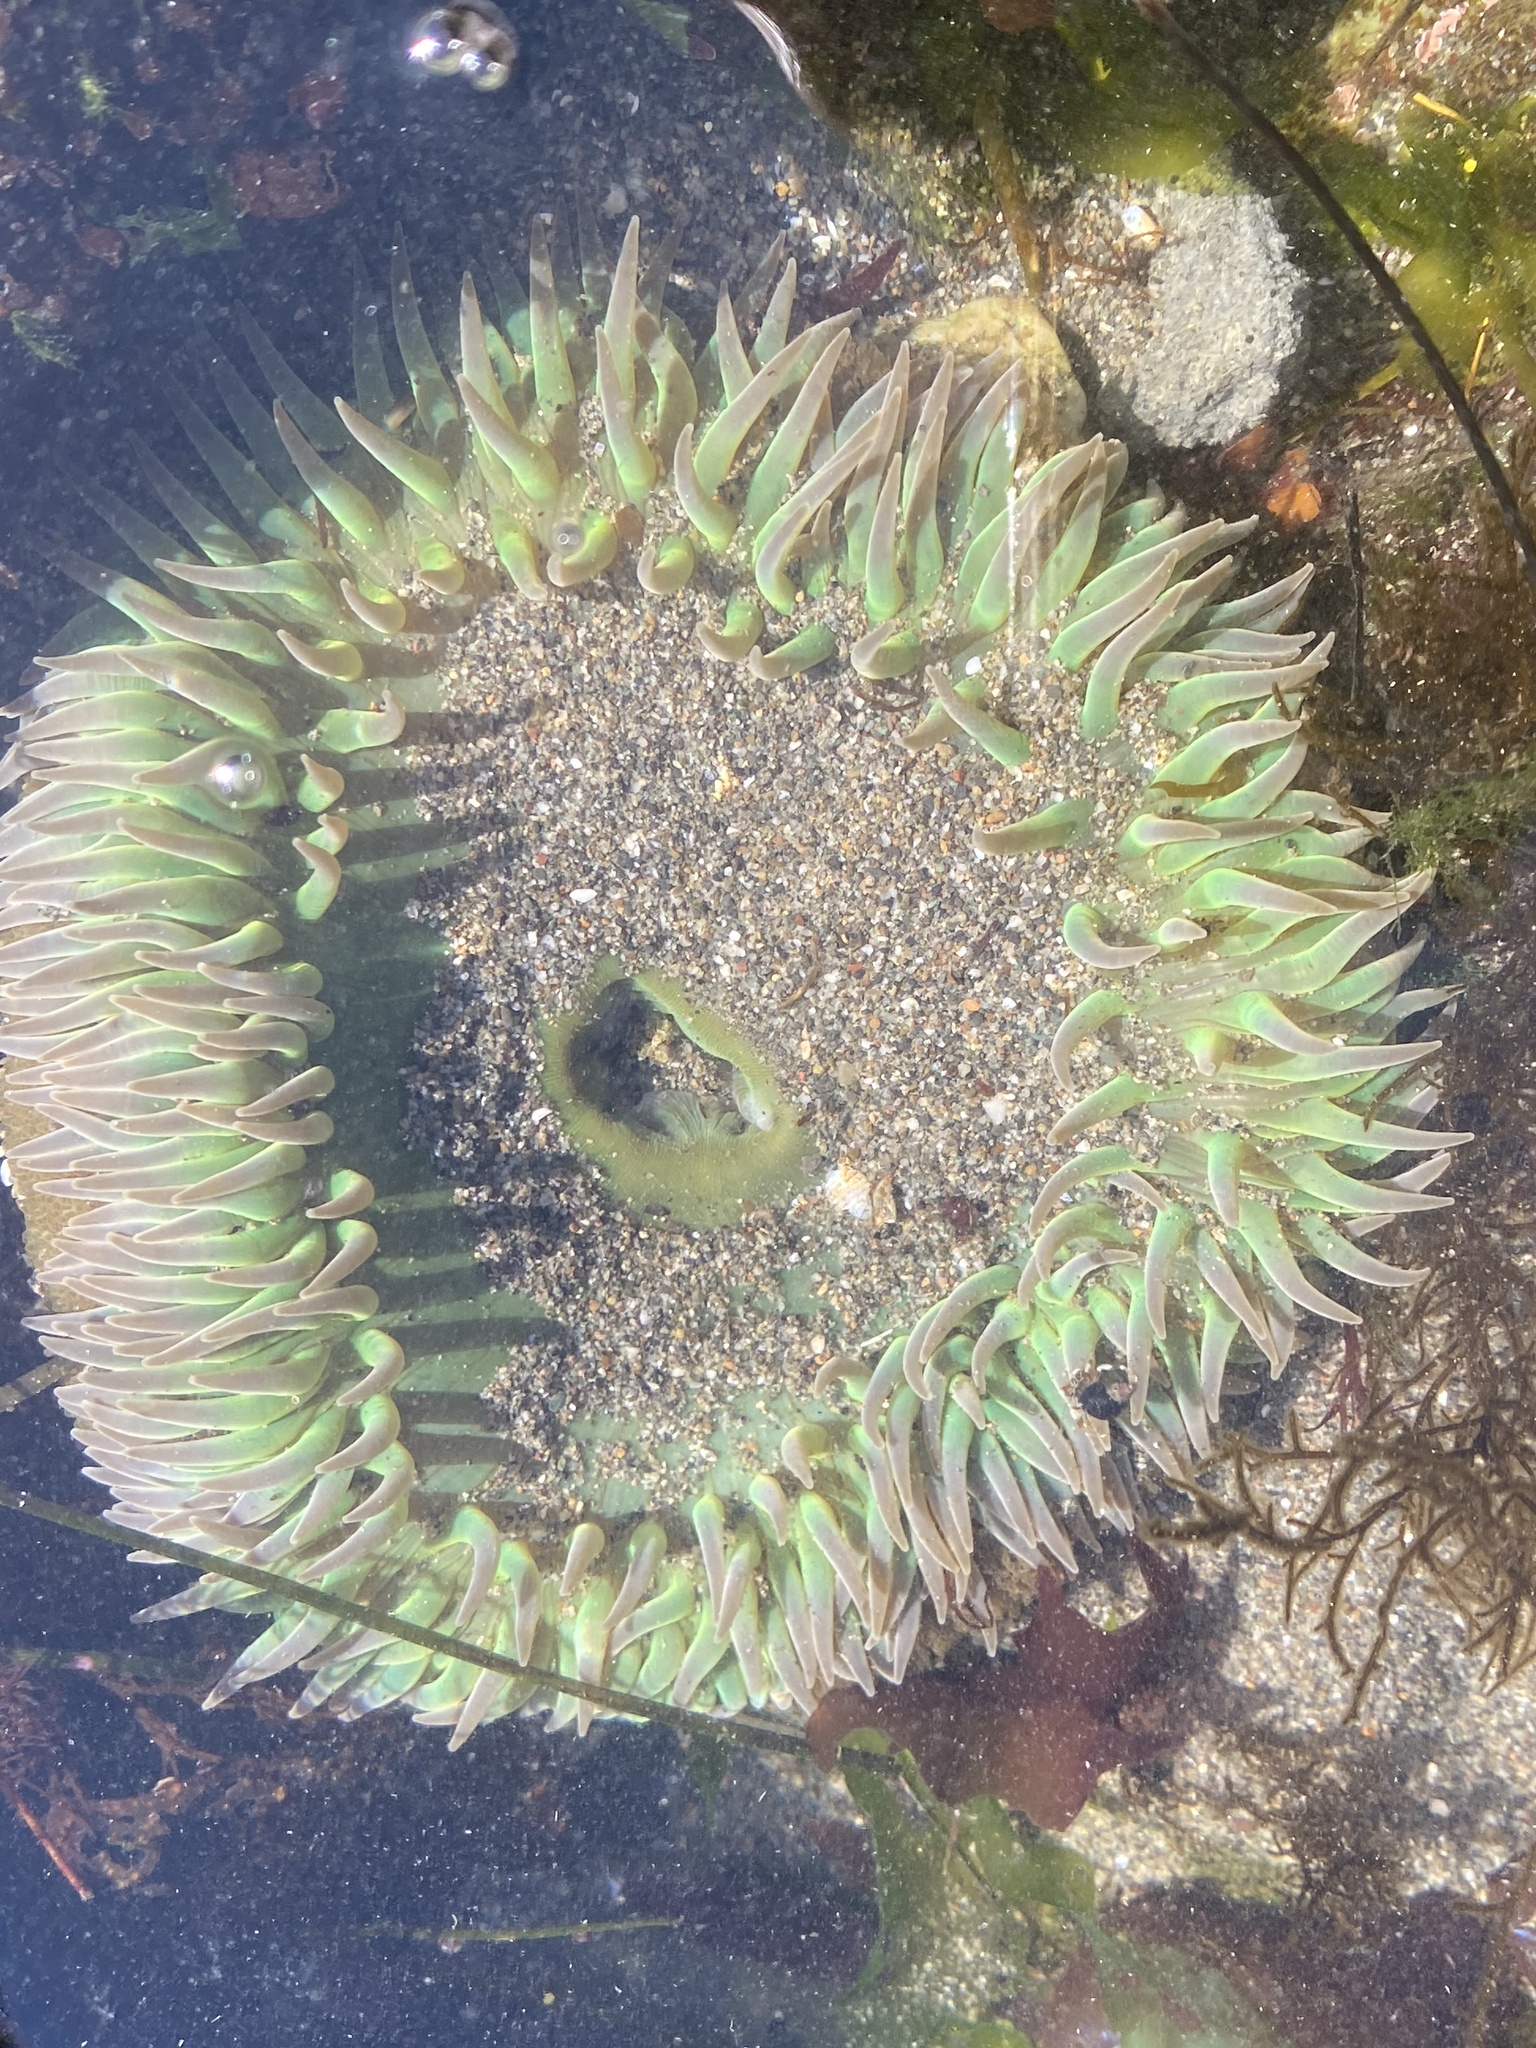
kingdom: Animalia
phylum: Cnidaria
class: Anthozoa
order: Actiniaria
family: Actiniidae
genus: Anthopleura
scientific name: Anthopleura xanthogrammica
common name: Giant green anemone
